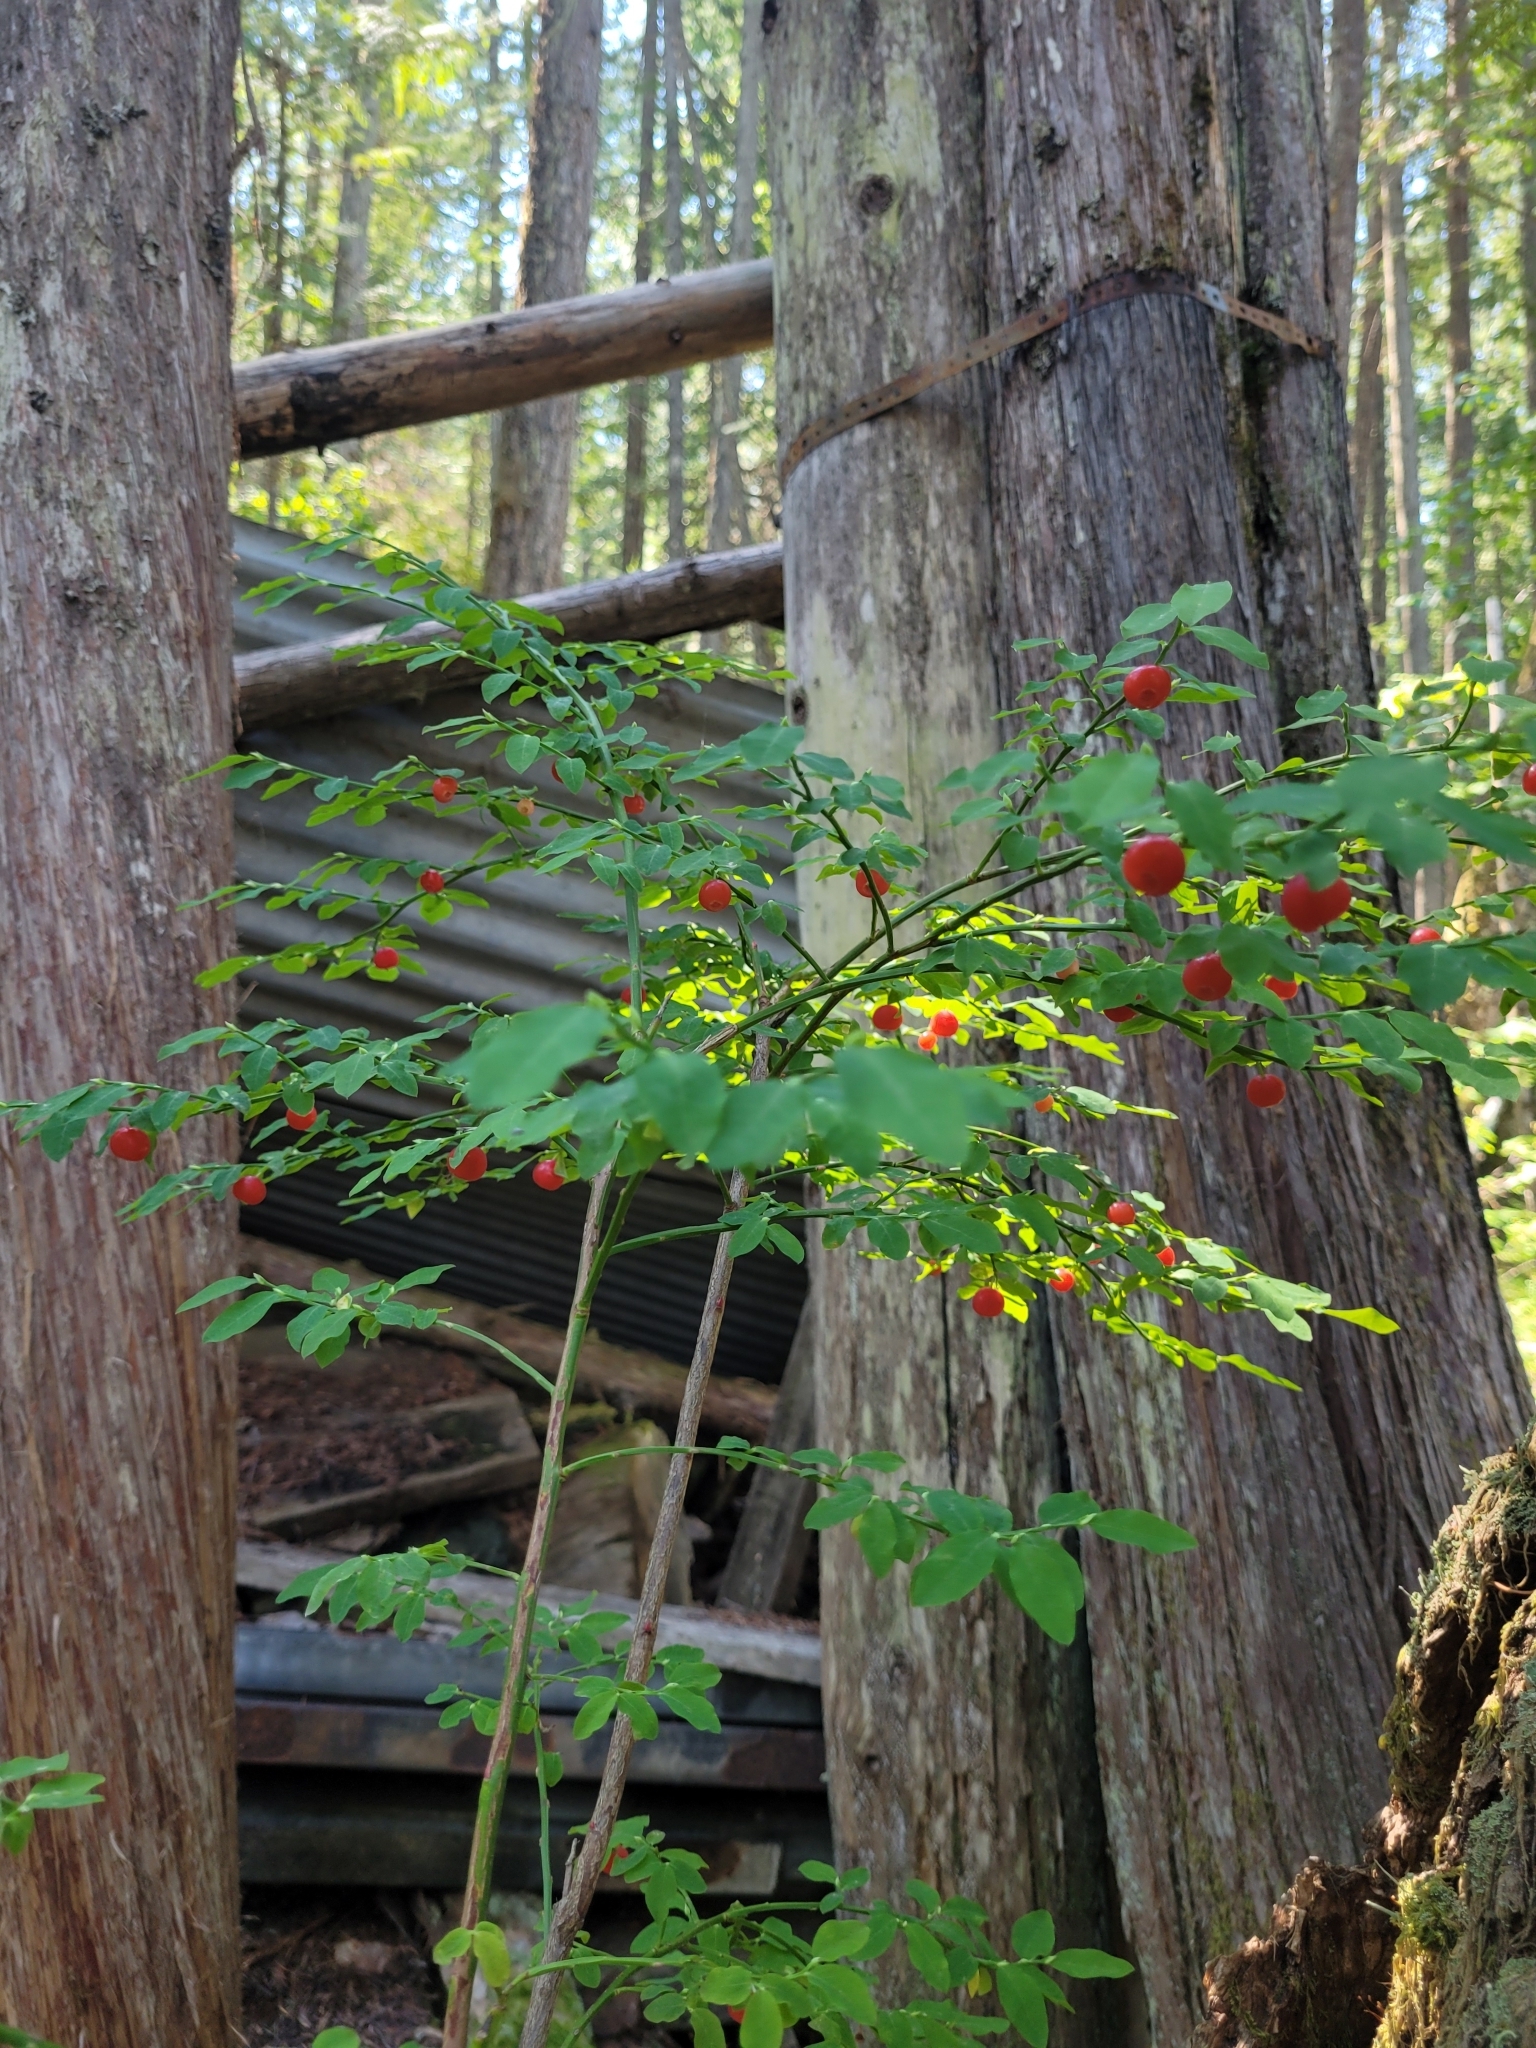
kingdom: Plantae
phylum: Tracheophyta
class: Magnoliopsida
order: Ericales
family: Ericaceae
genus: Vaccinium
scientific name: Vaccinium parvifolium
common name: Red-huckleberry
